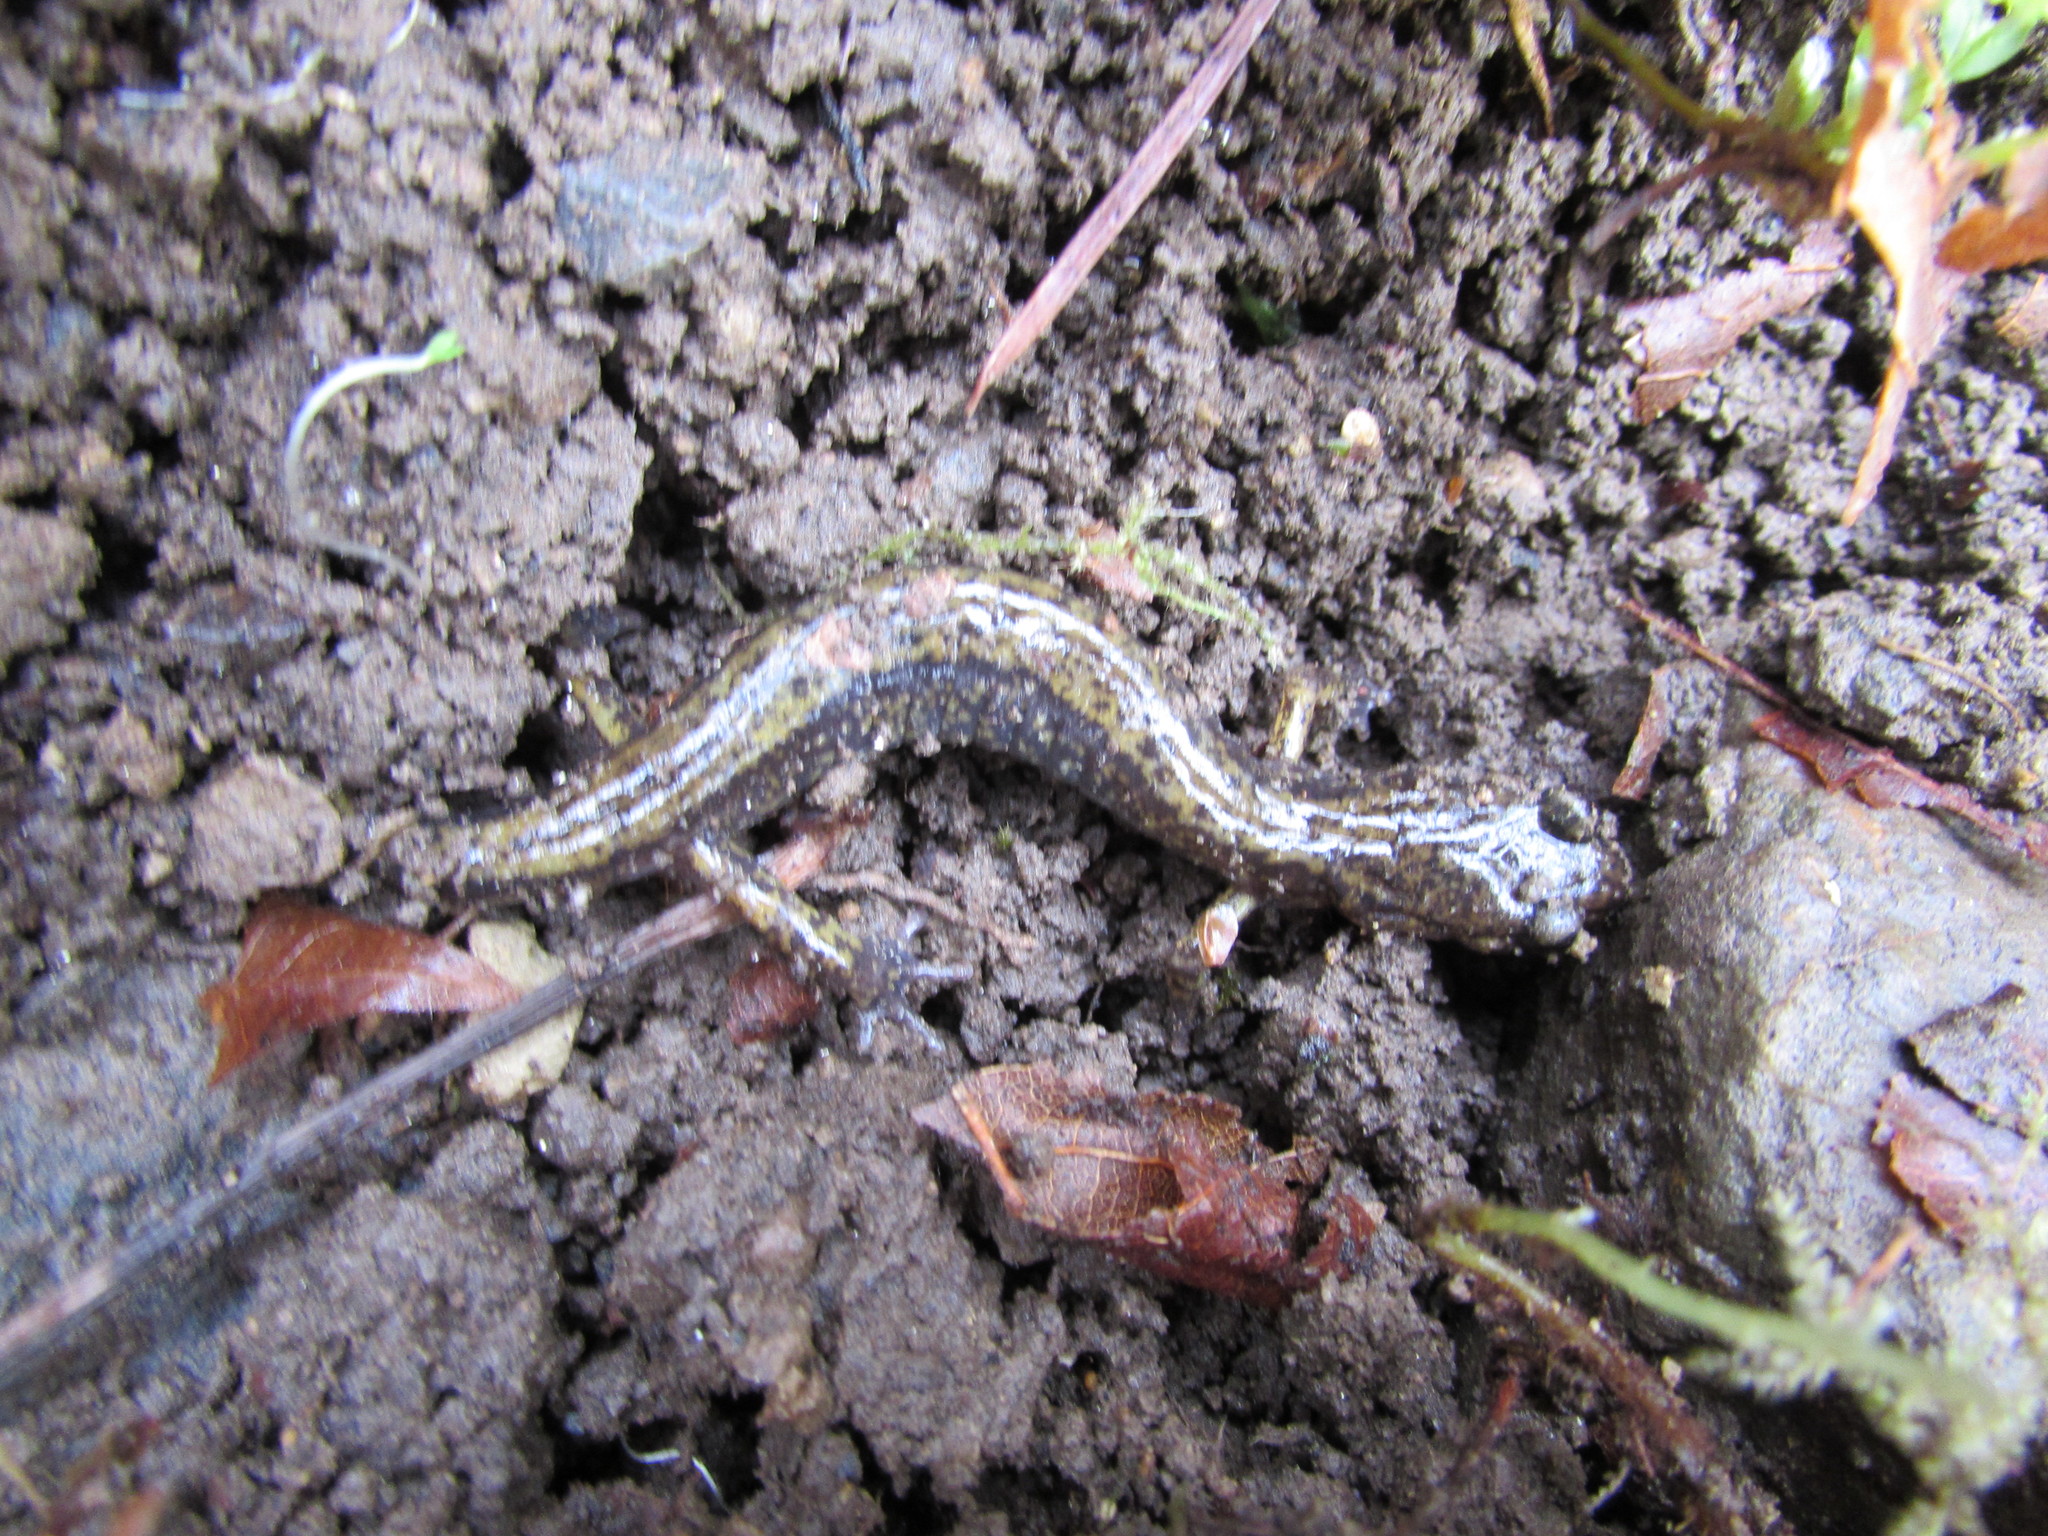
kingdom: Animalia
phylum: Chordata
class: Amphibia
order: Caudata
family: Plethodontidae
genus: Plethodon
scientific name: Plethodon dunni
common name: Dunn's salamander
